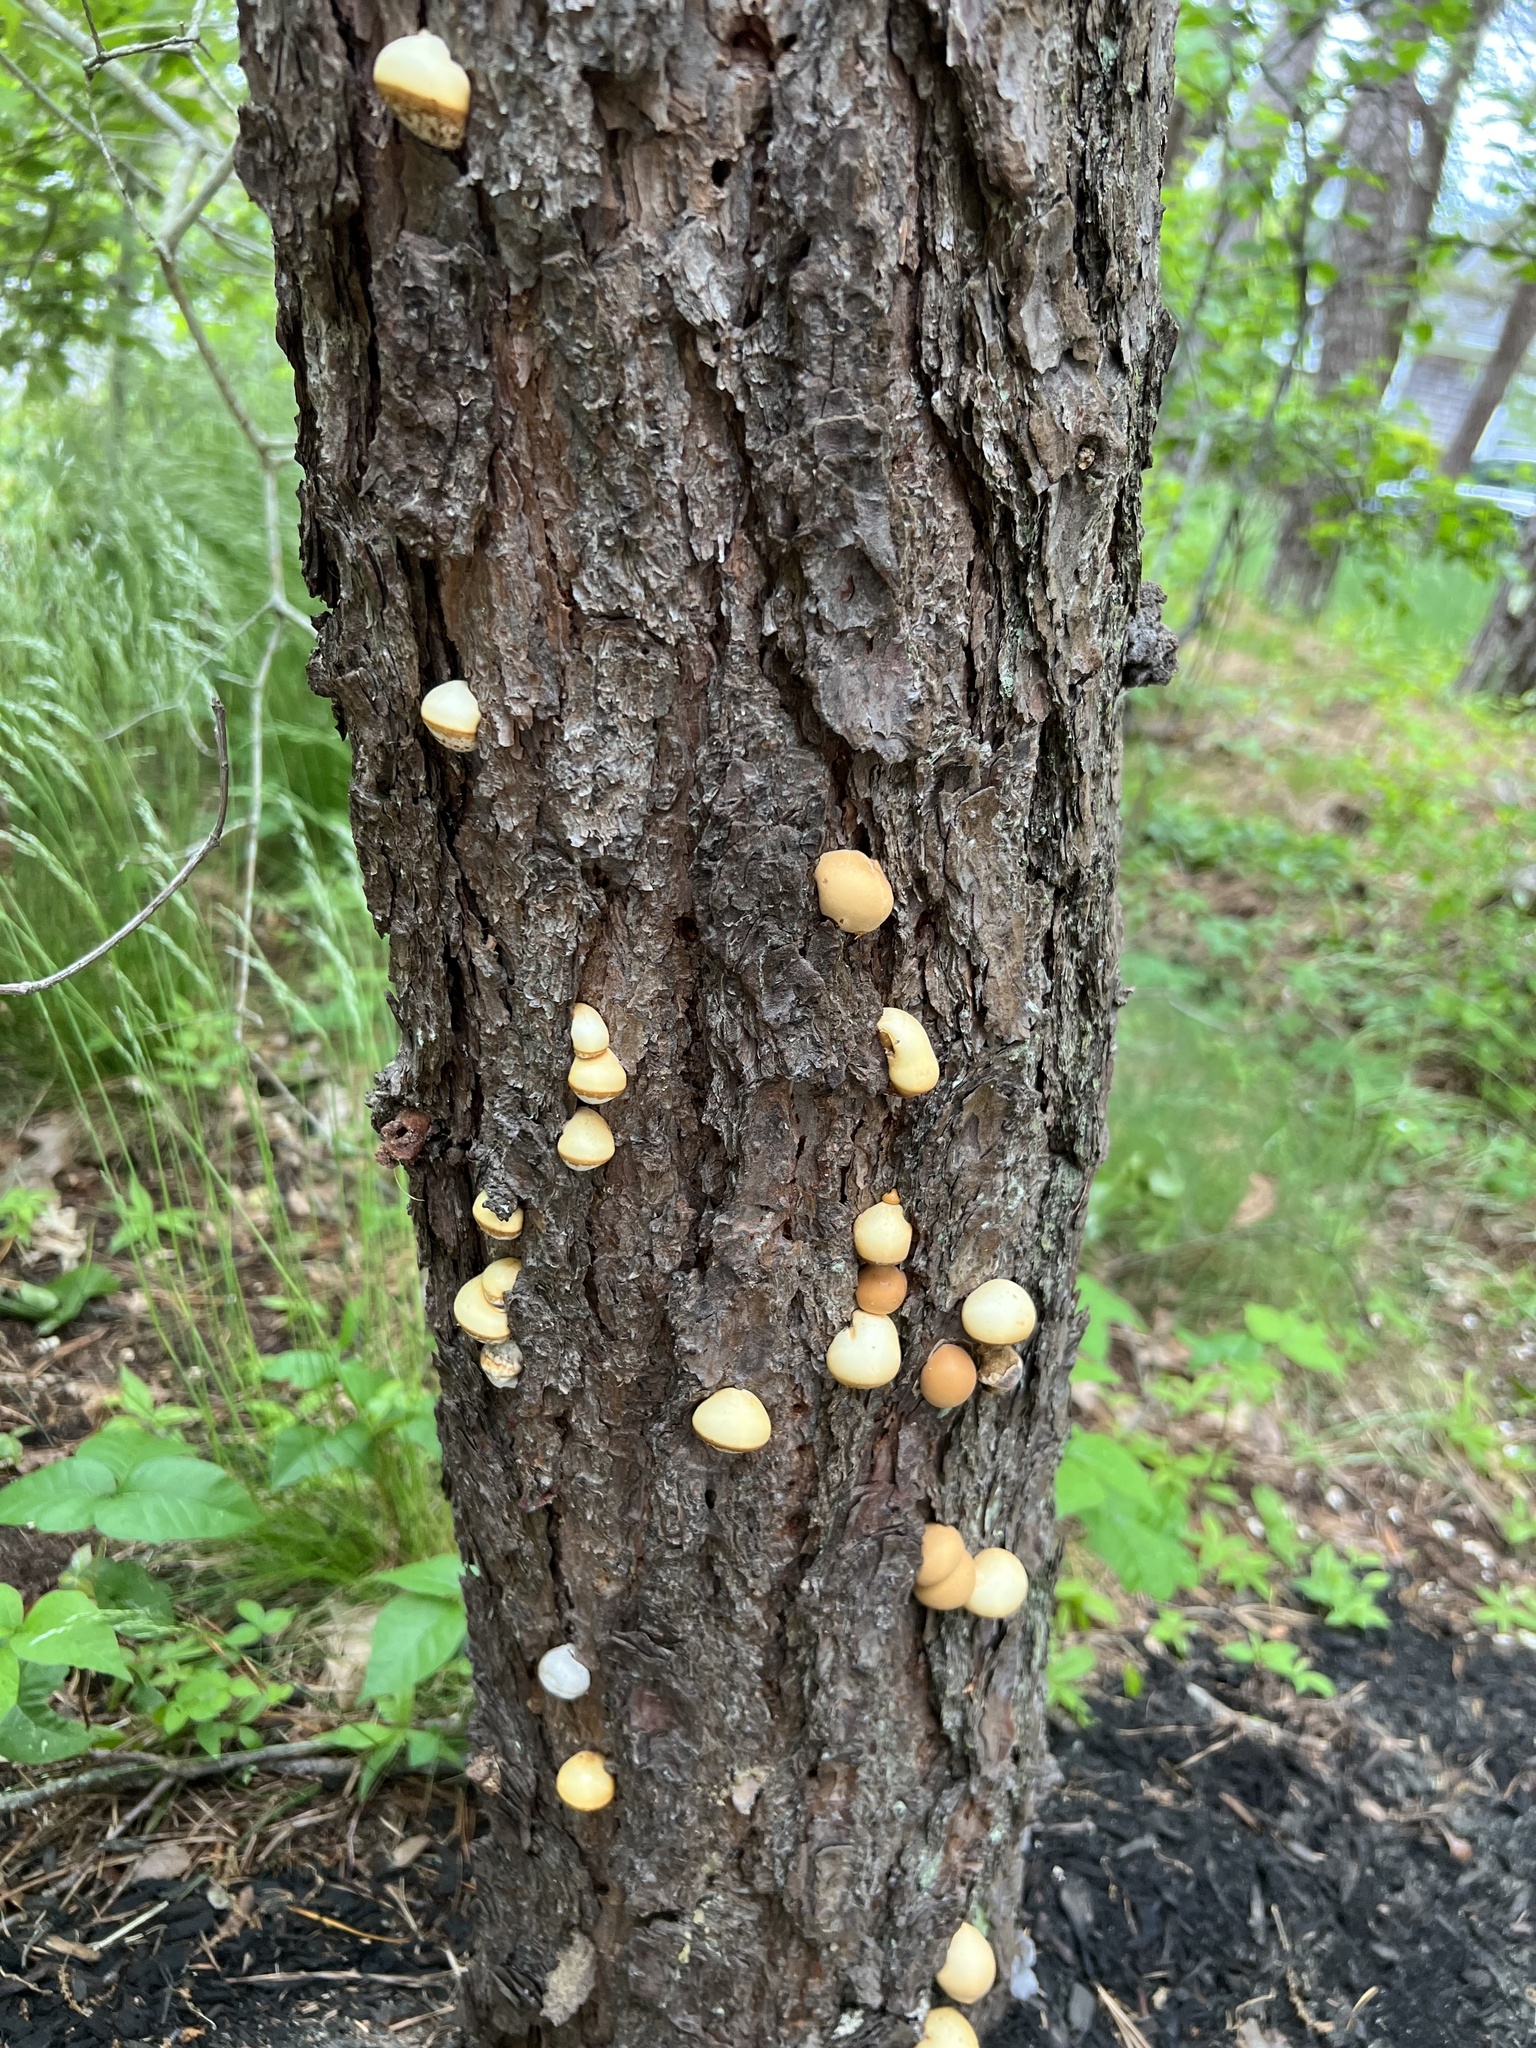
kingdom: Fungi
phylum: Basidiomycota
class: Agaricomycetes
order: Polyporales
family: Polyporaceae
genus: Cryptoporus
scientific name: Cryptoporus volvatus
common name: Veiled polypore
